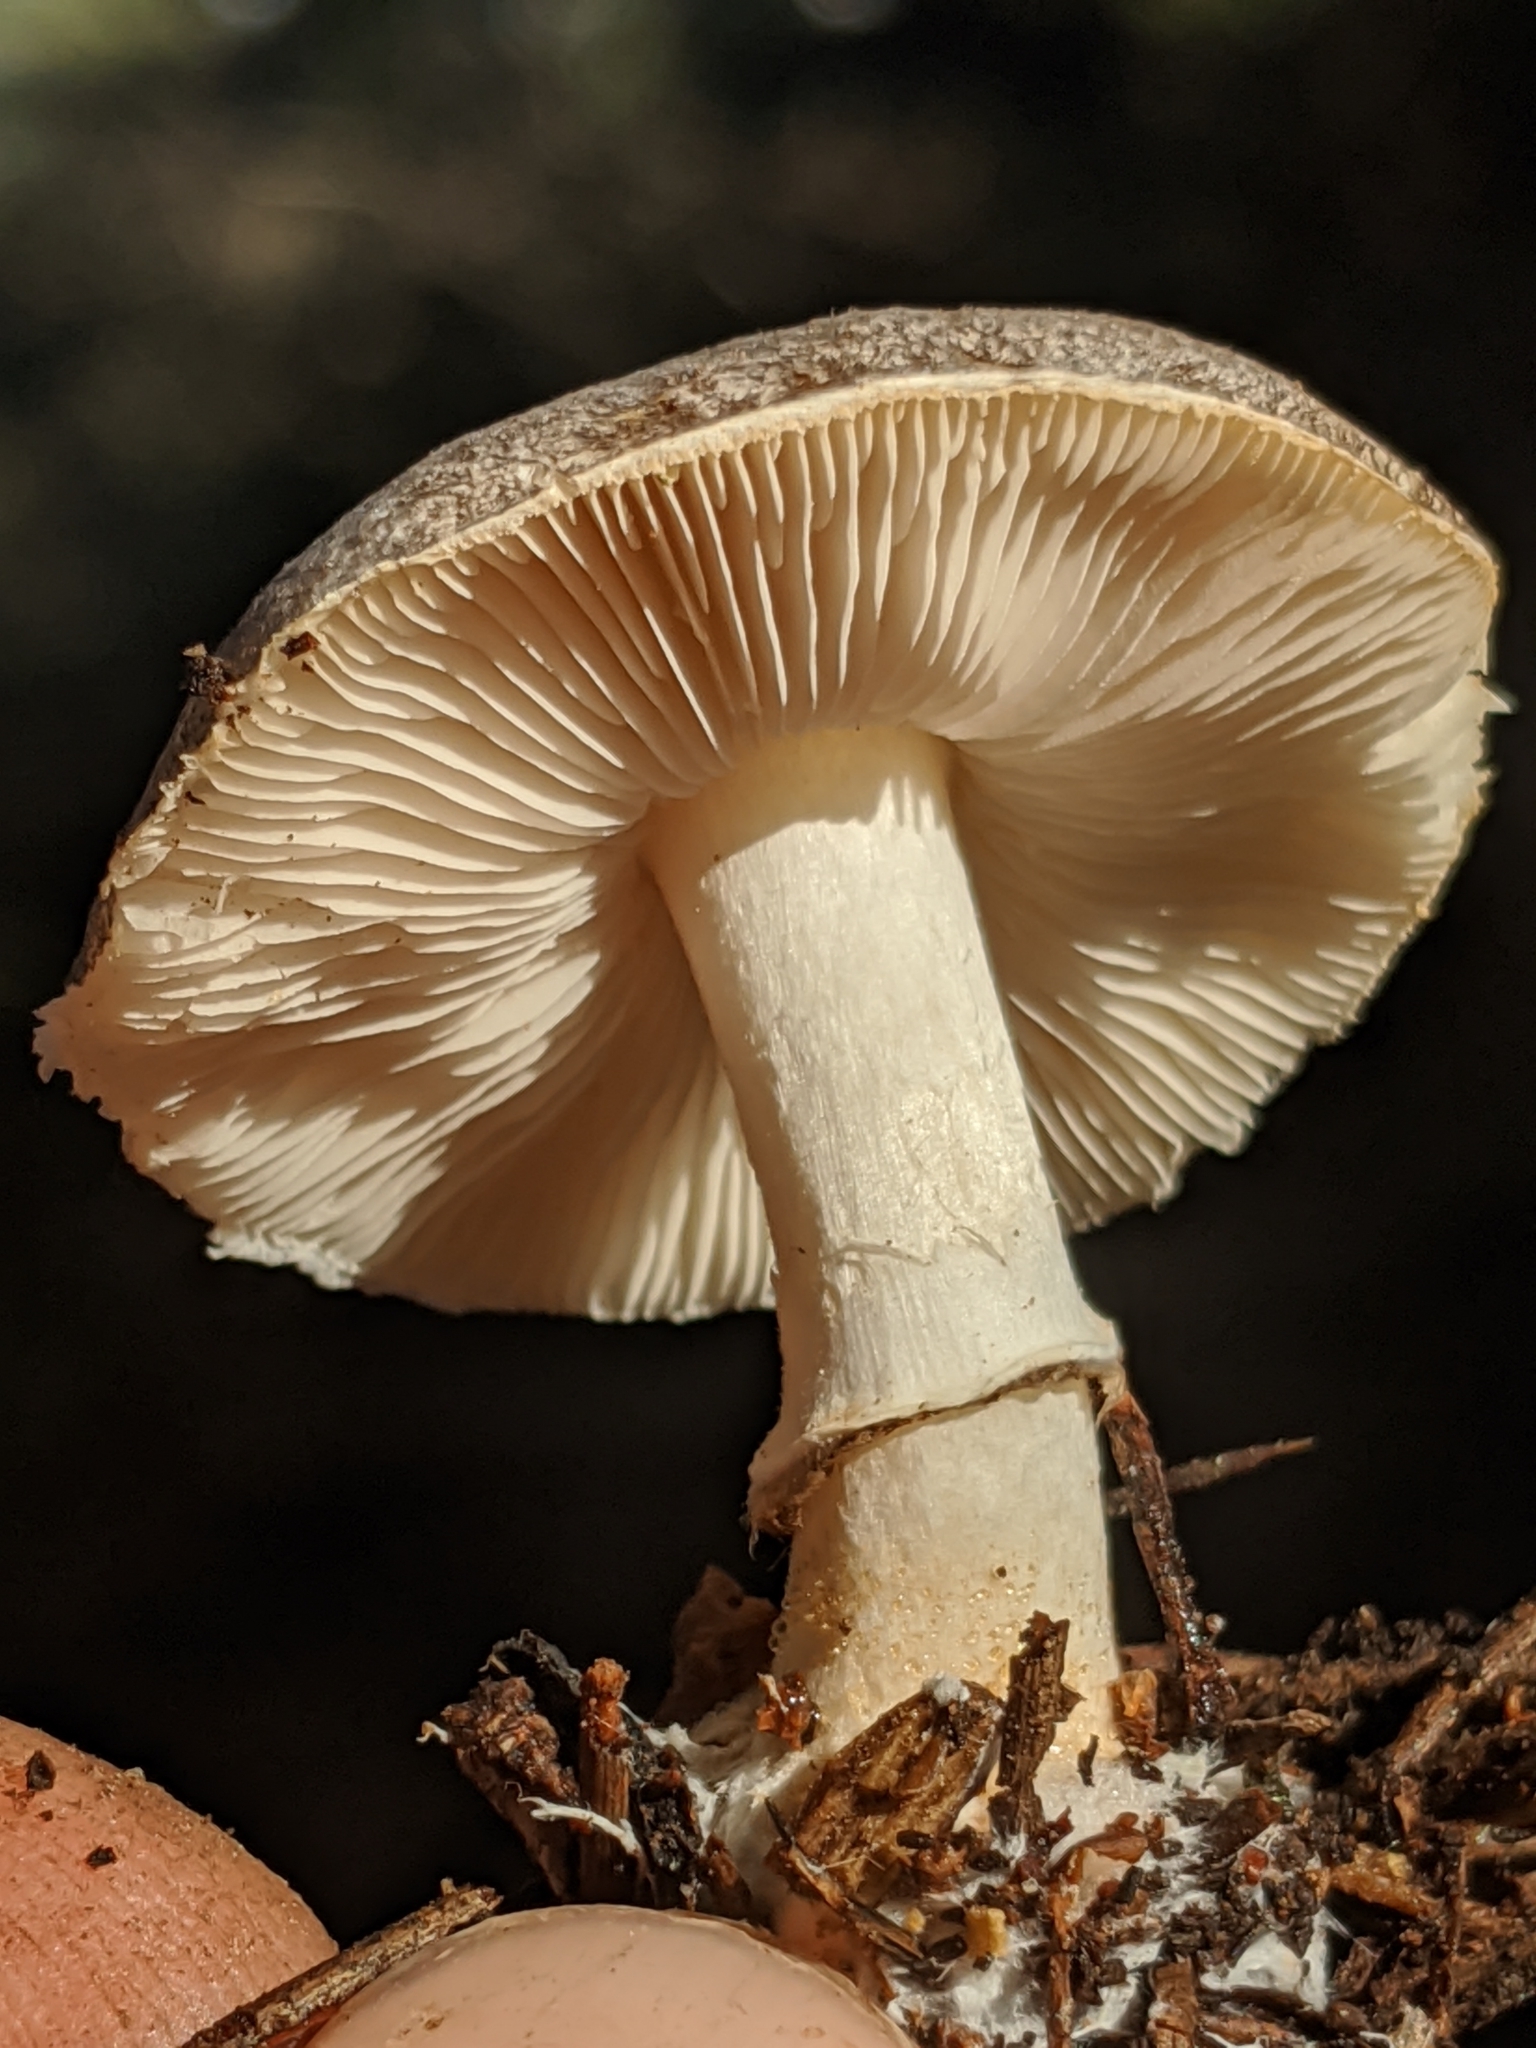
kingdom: Fungi
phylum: Basidiomycota
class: Agaricomycetes
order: Agaricales
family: Agaricaceae
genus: Lepiota
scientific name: Lepiota atrodisca
